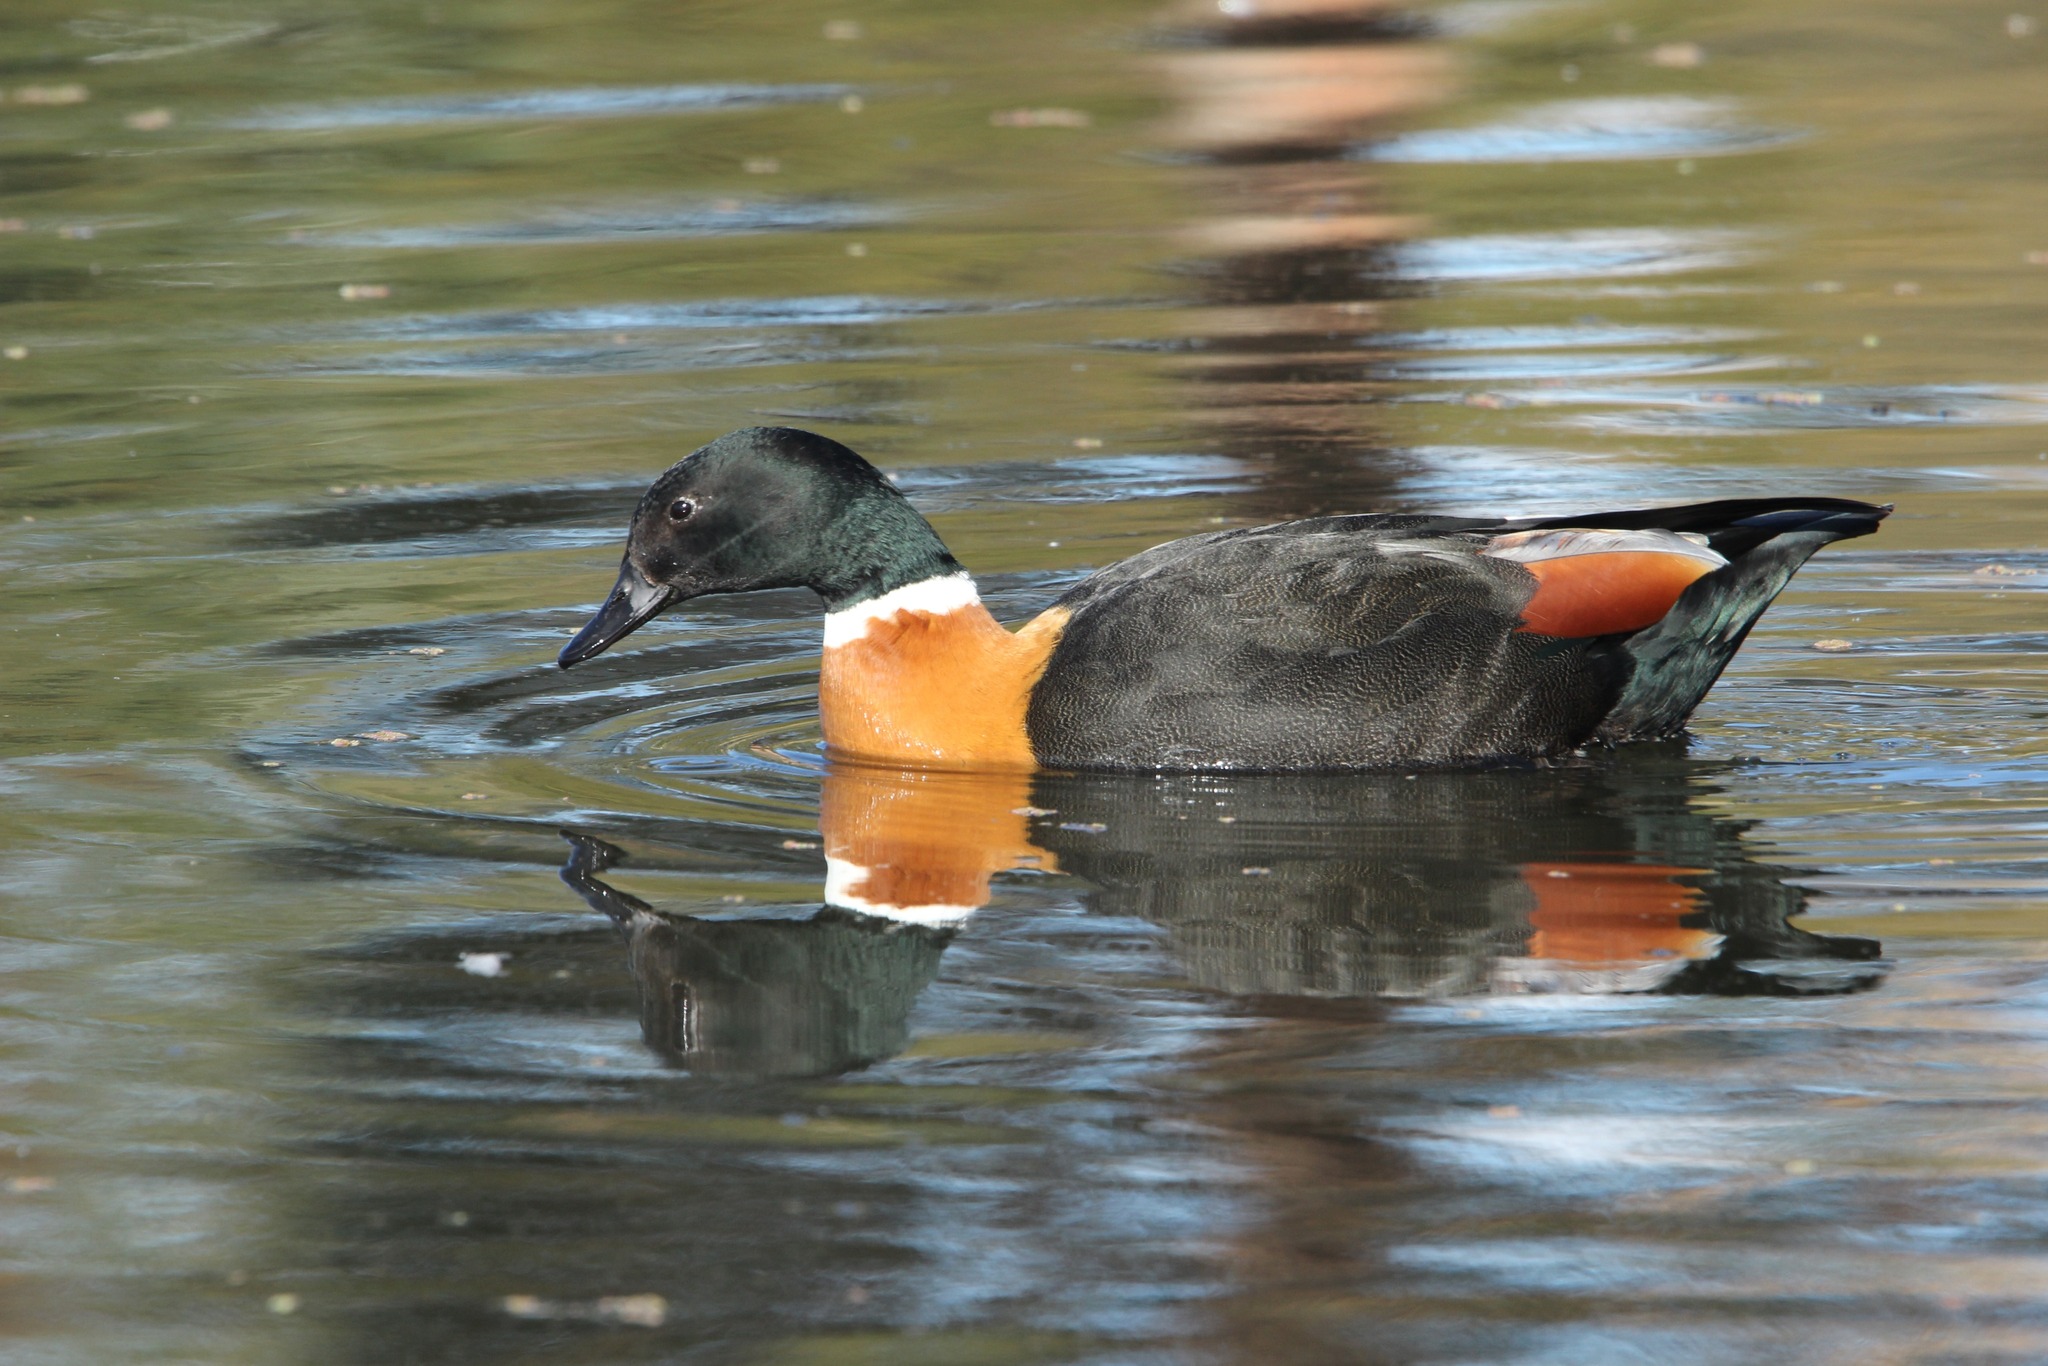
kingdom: Animalia
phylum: Chordata
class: Aves
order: Anseriformes
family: Anatidae
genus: Tadorna
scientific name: Tadorna tadornoides
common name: Australian shelduck
